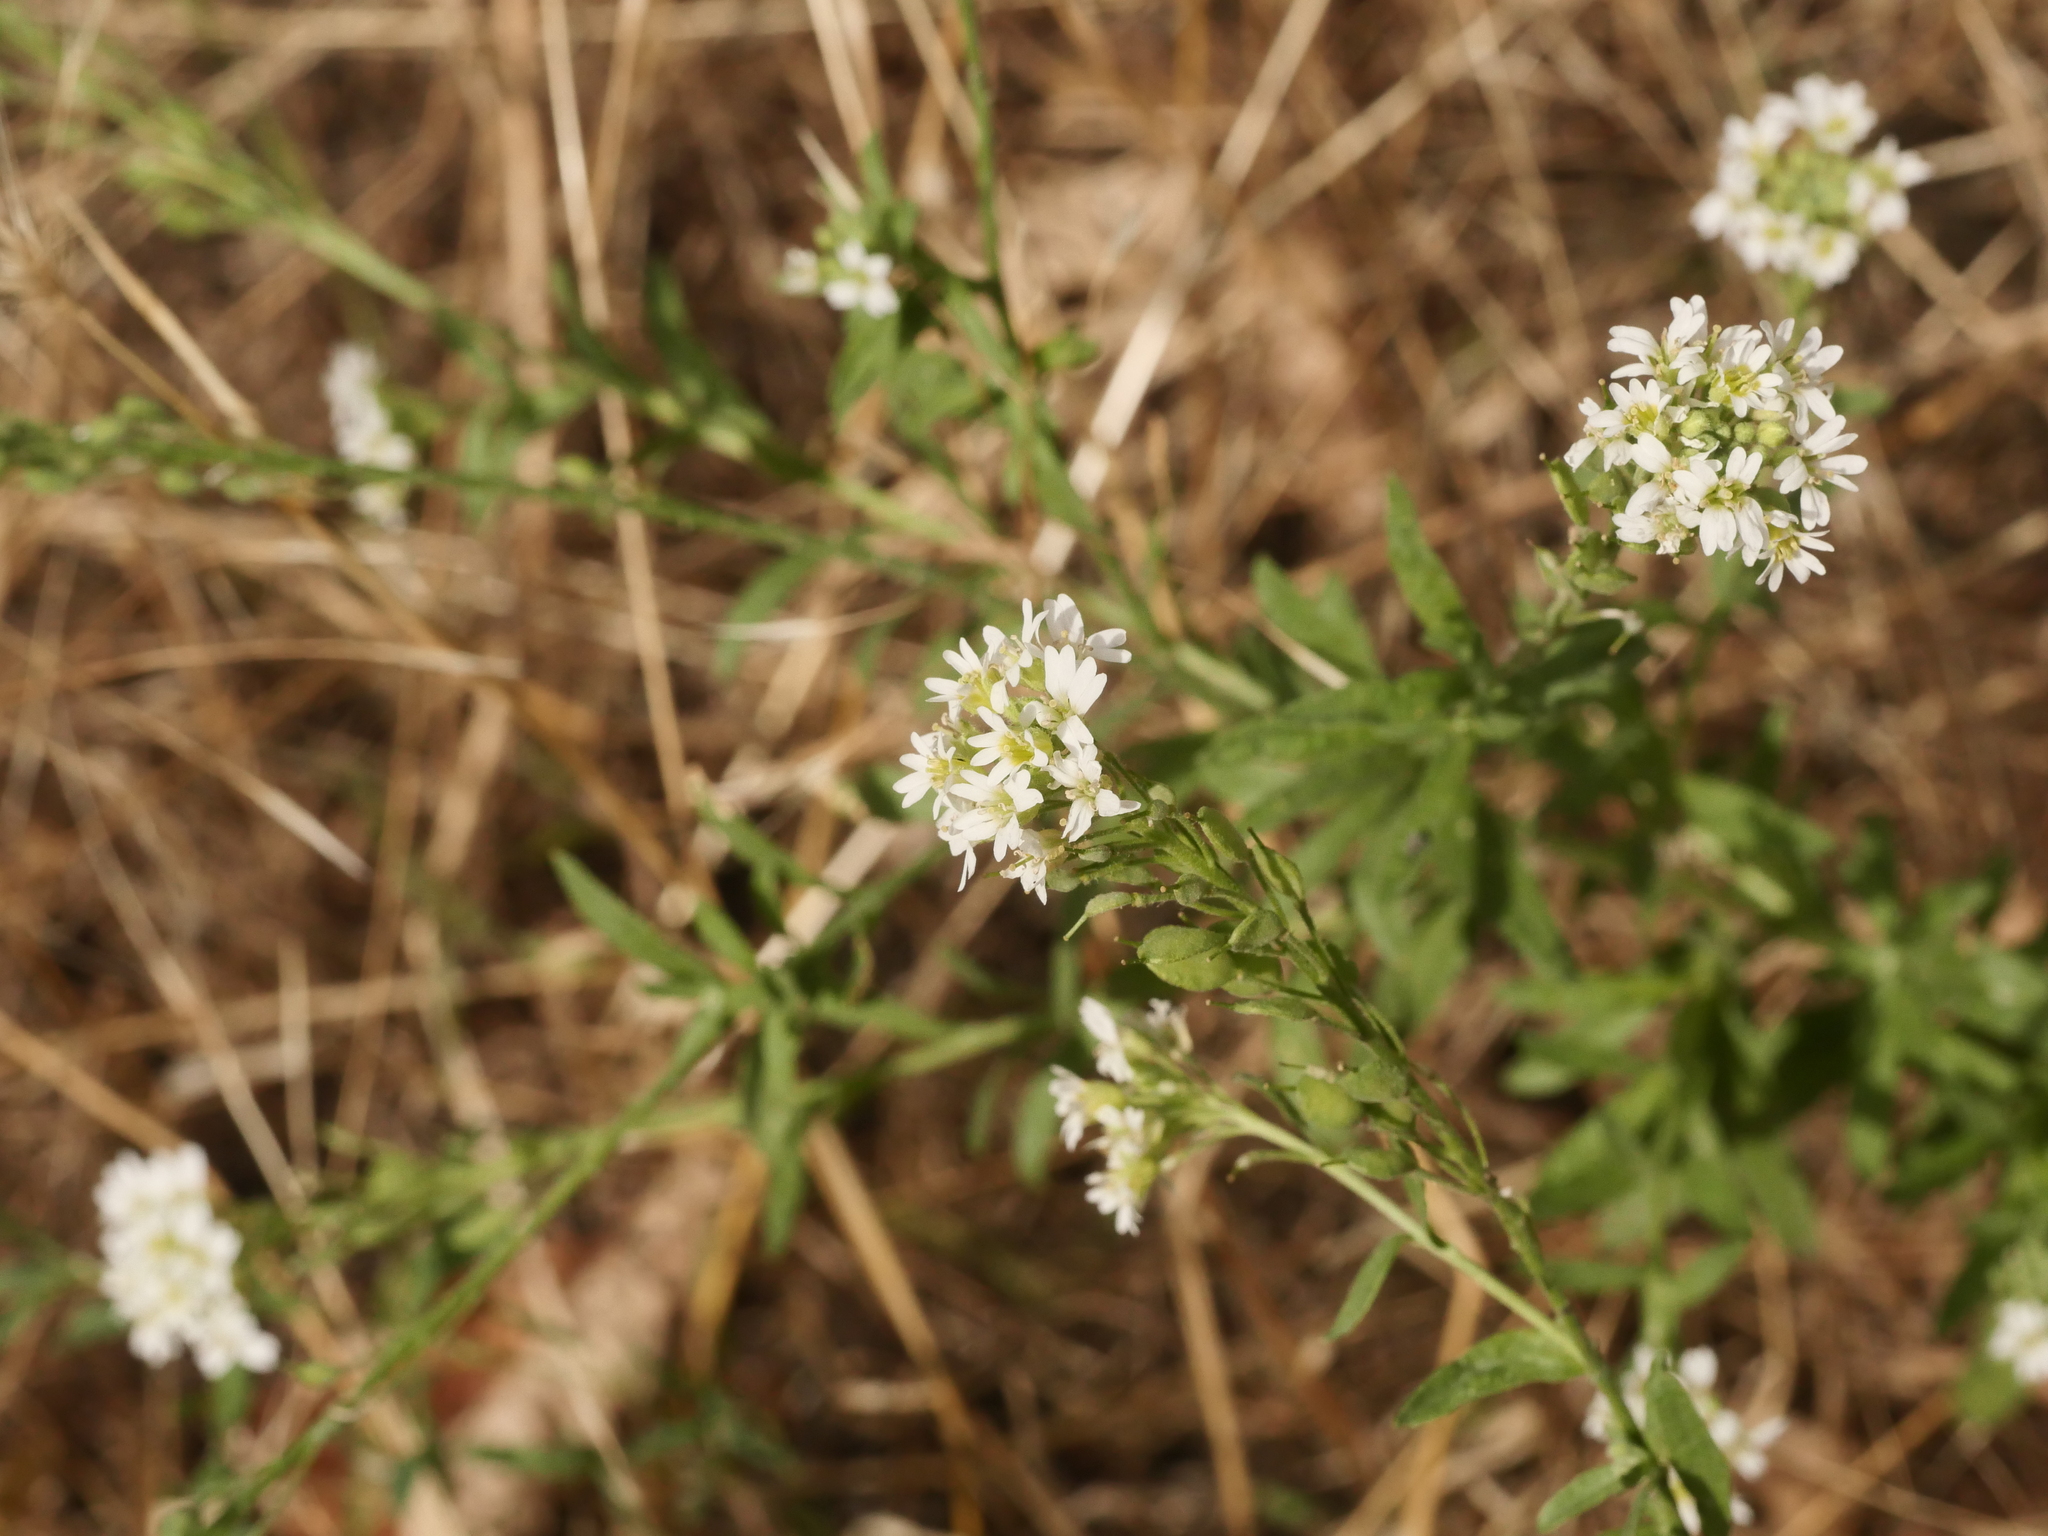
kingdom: Plantae
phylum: Tracheophyta
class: Magnoliopsida
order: Brassicales
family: Brassicaceae
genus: Berteroa
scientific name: Berteroa incana
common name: Hoary alison
